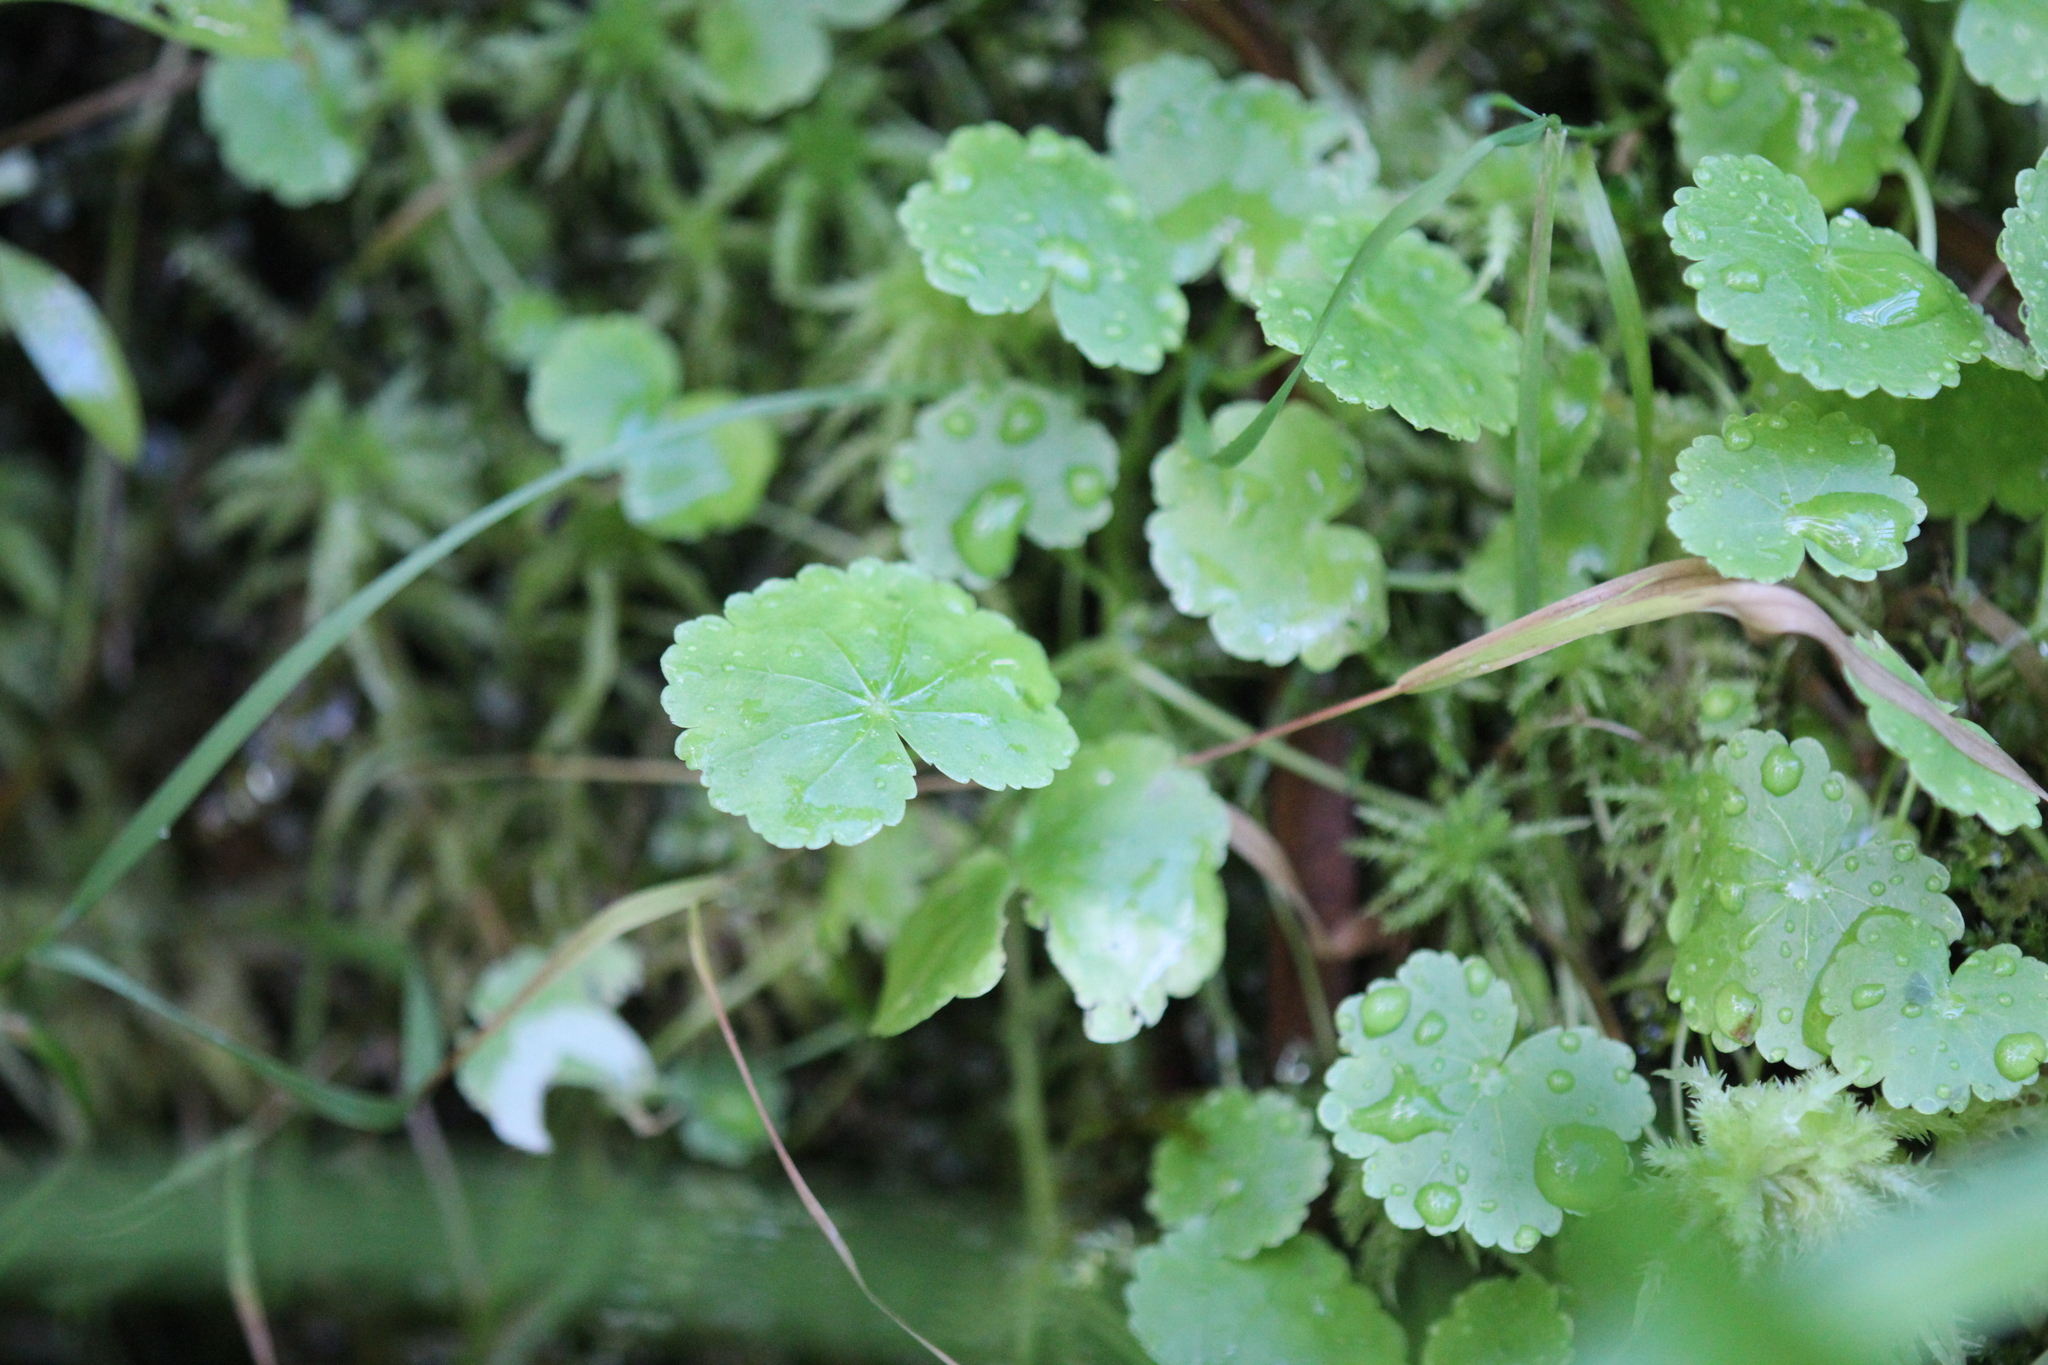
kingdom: Plantae
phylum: Tracheophyta
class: Magnoliopsida
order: Apiales
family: Araliaceae
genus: Hydrocotyle
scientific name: Hydrocotyle americana
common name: American water-pennywort
